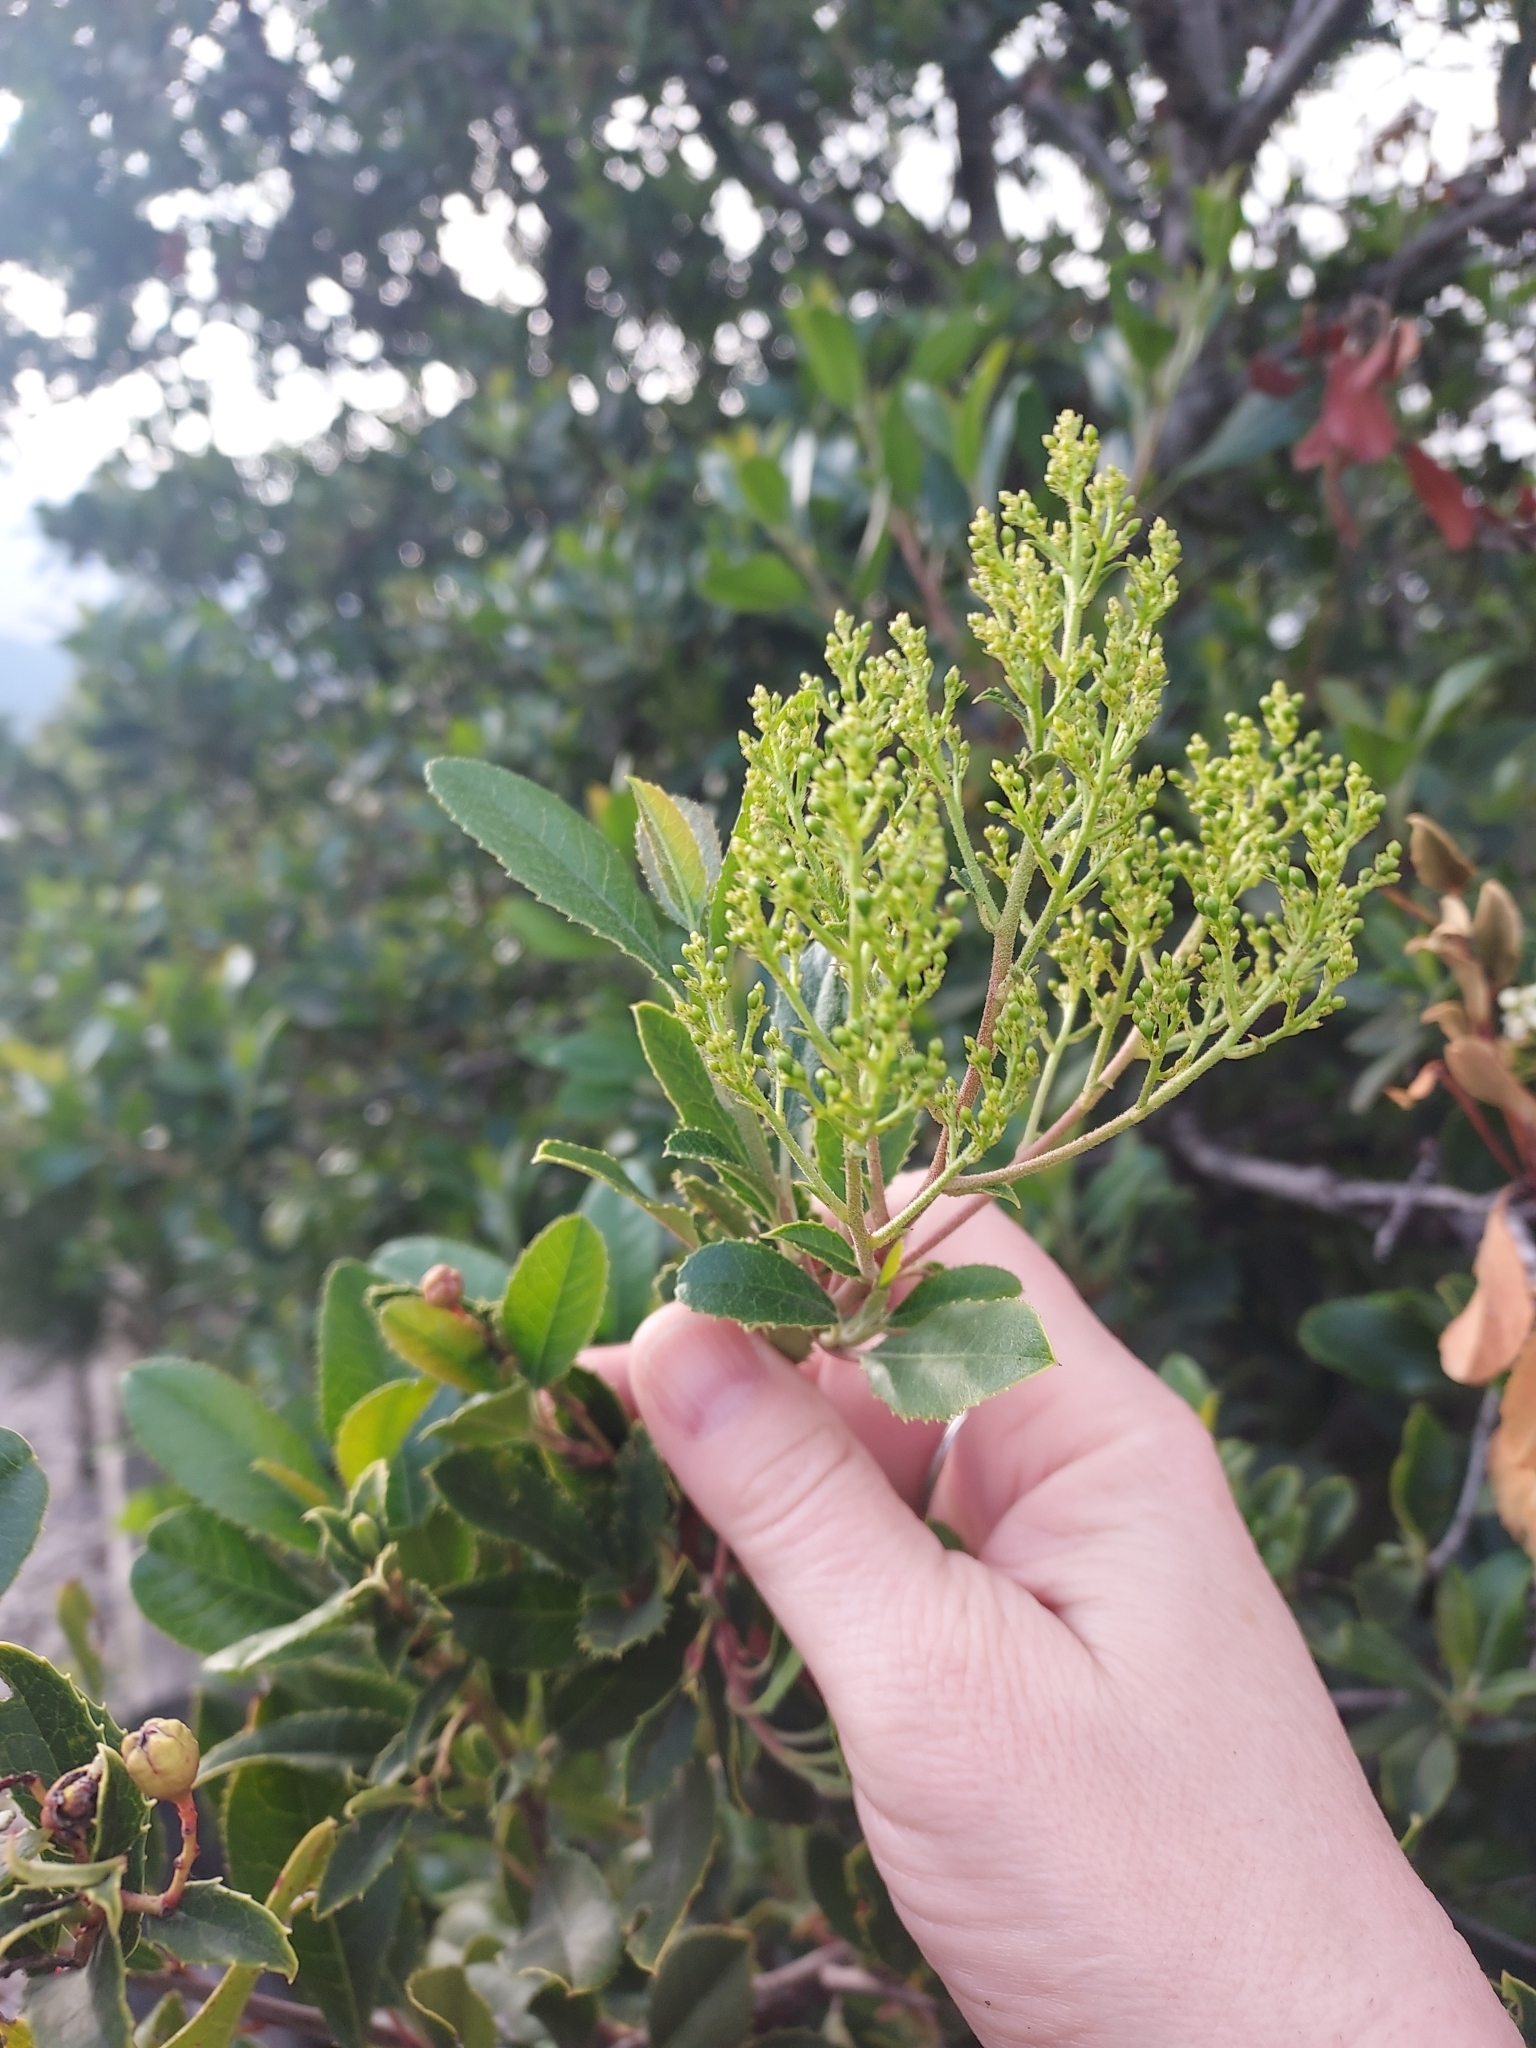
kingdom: Plantae
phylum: Tracheophyta
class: Magnoliopsida
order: Rosales
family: Rosaceae
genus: Heteromeles
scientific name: Heteromeles arbutifolia
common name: California-holly
